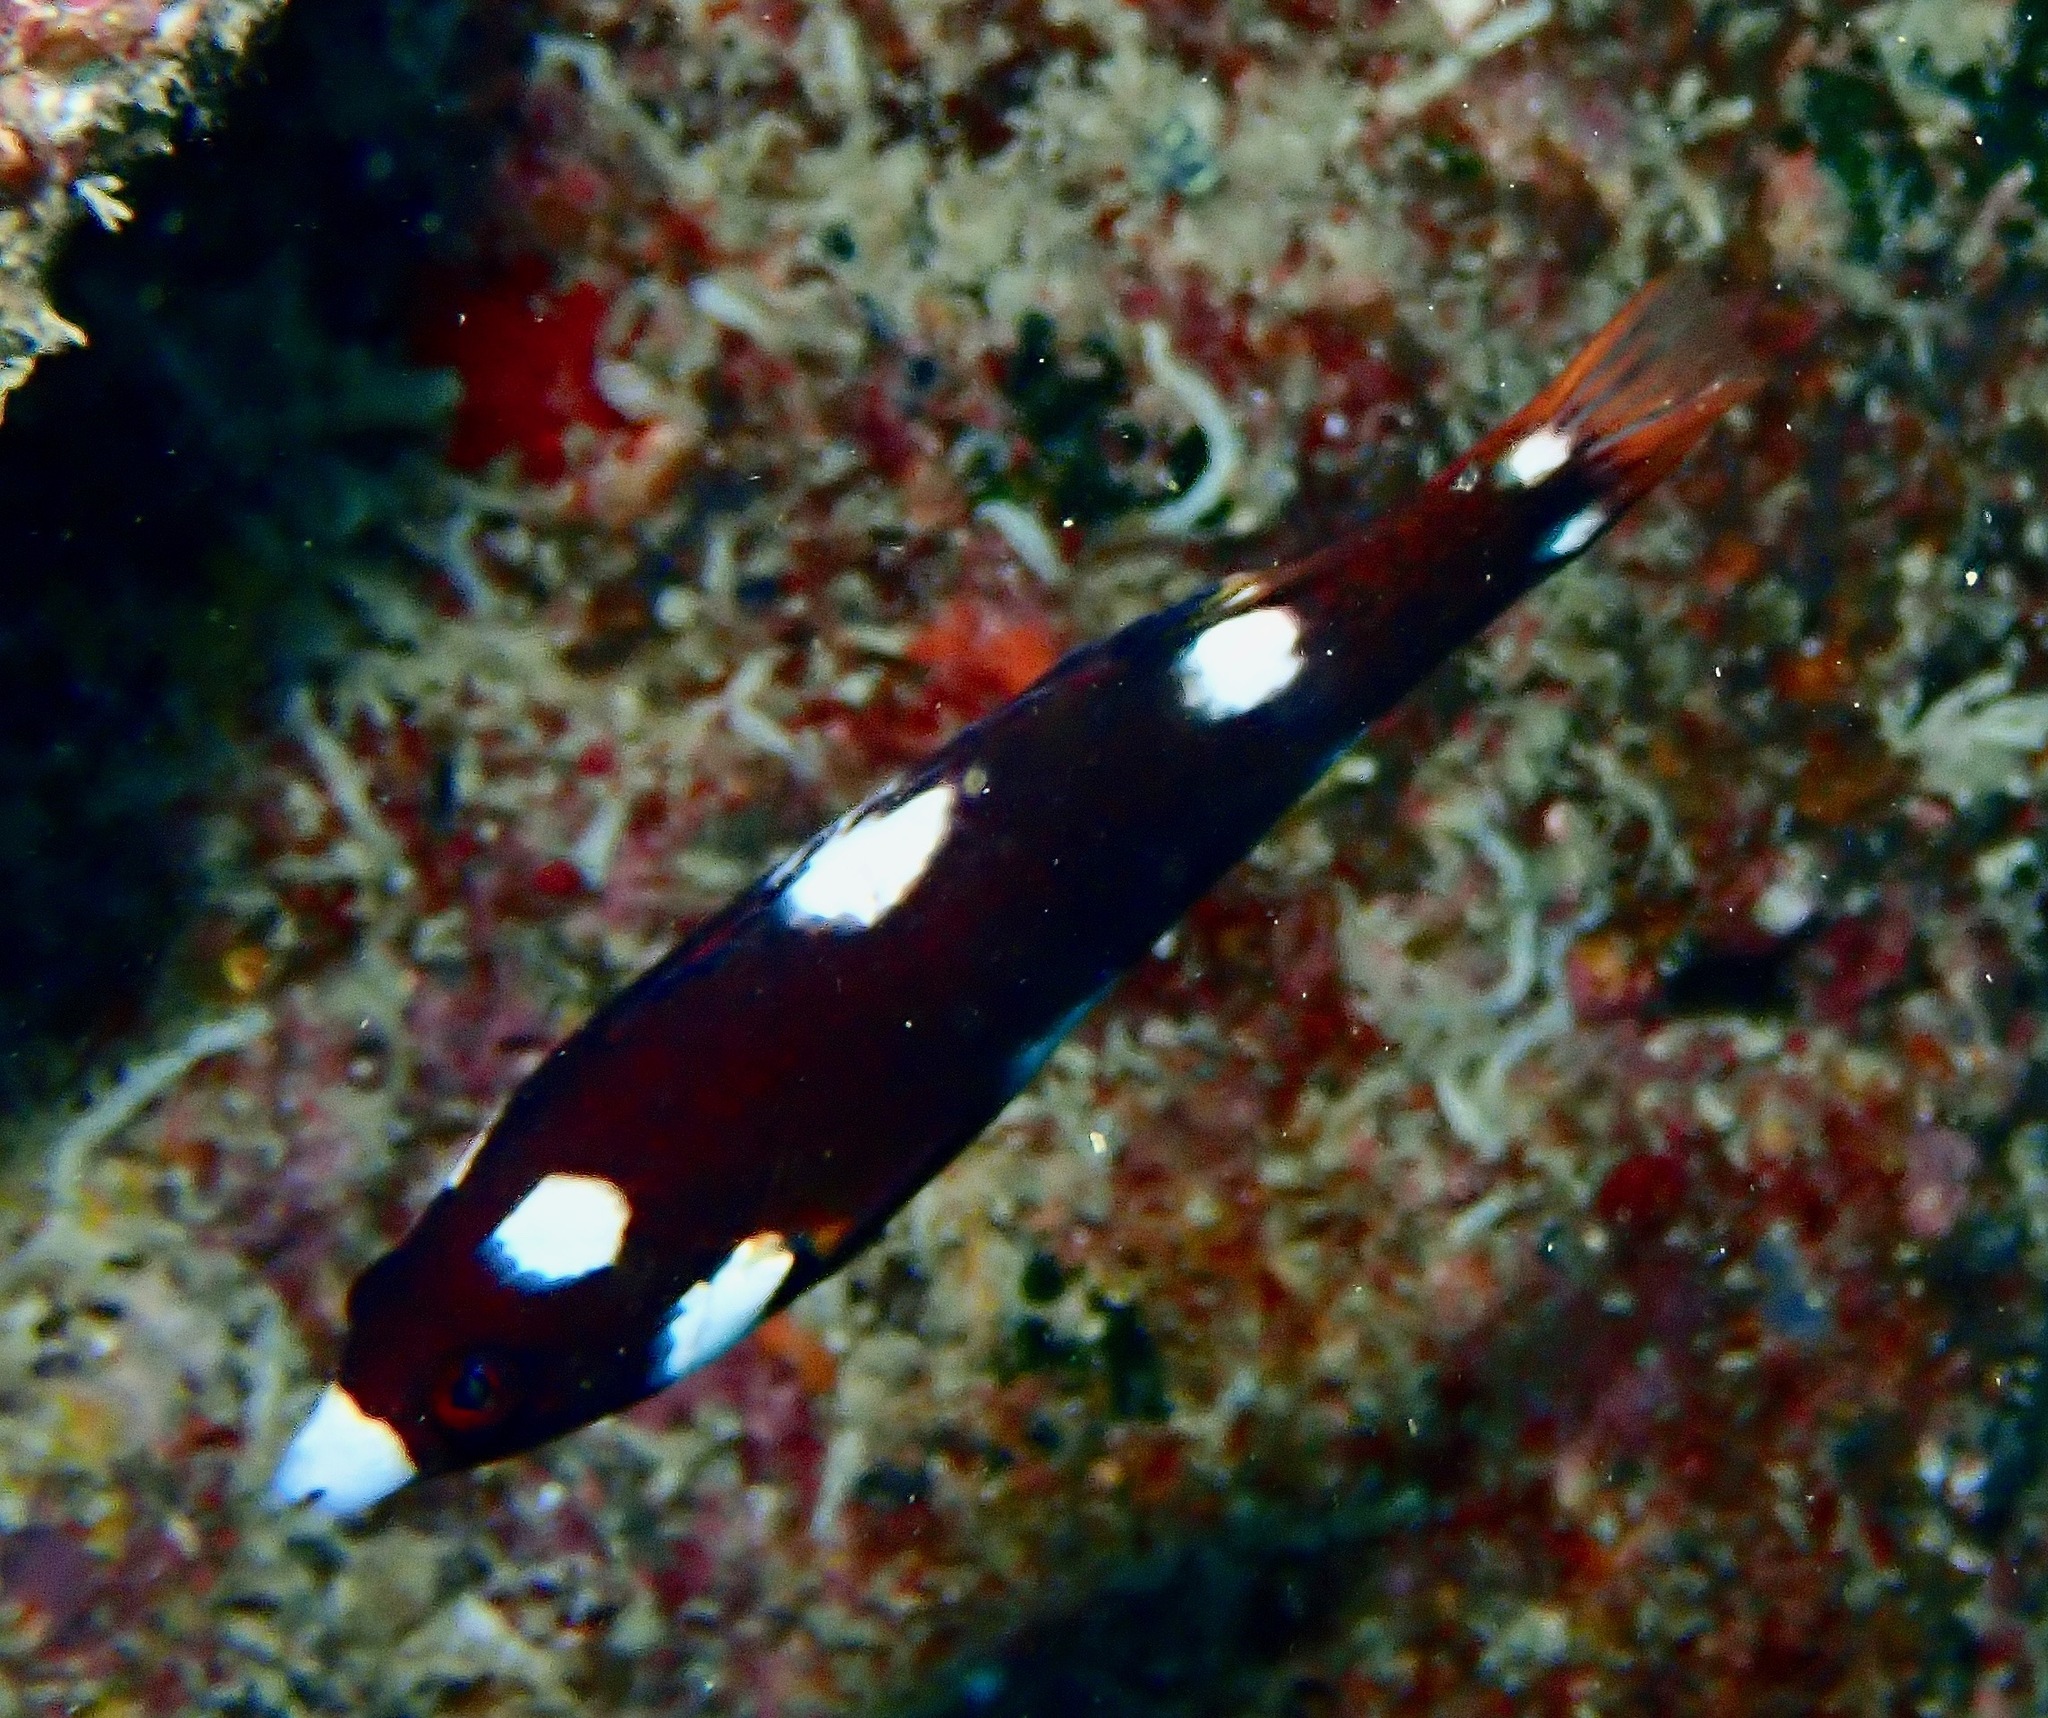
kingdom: Animalia
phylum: Chordata
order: Perciformes
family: Labridae
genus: Bodianus
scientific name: Bodianus axillaris
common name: Axilspot hogfish
